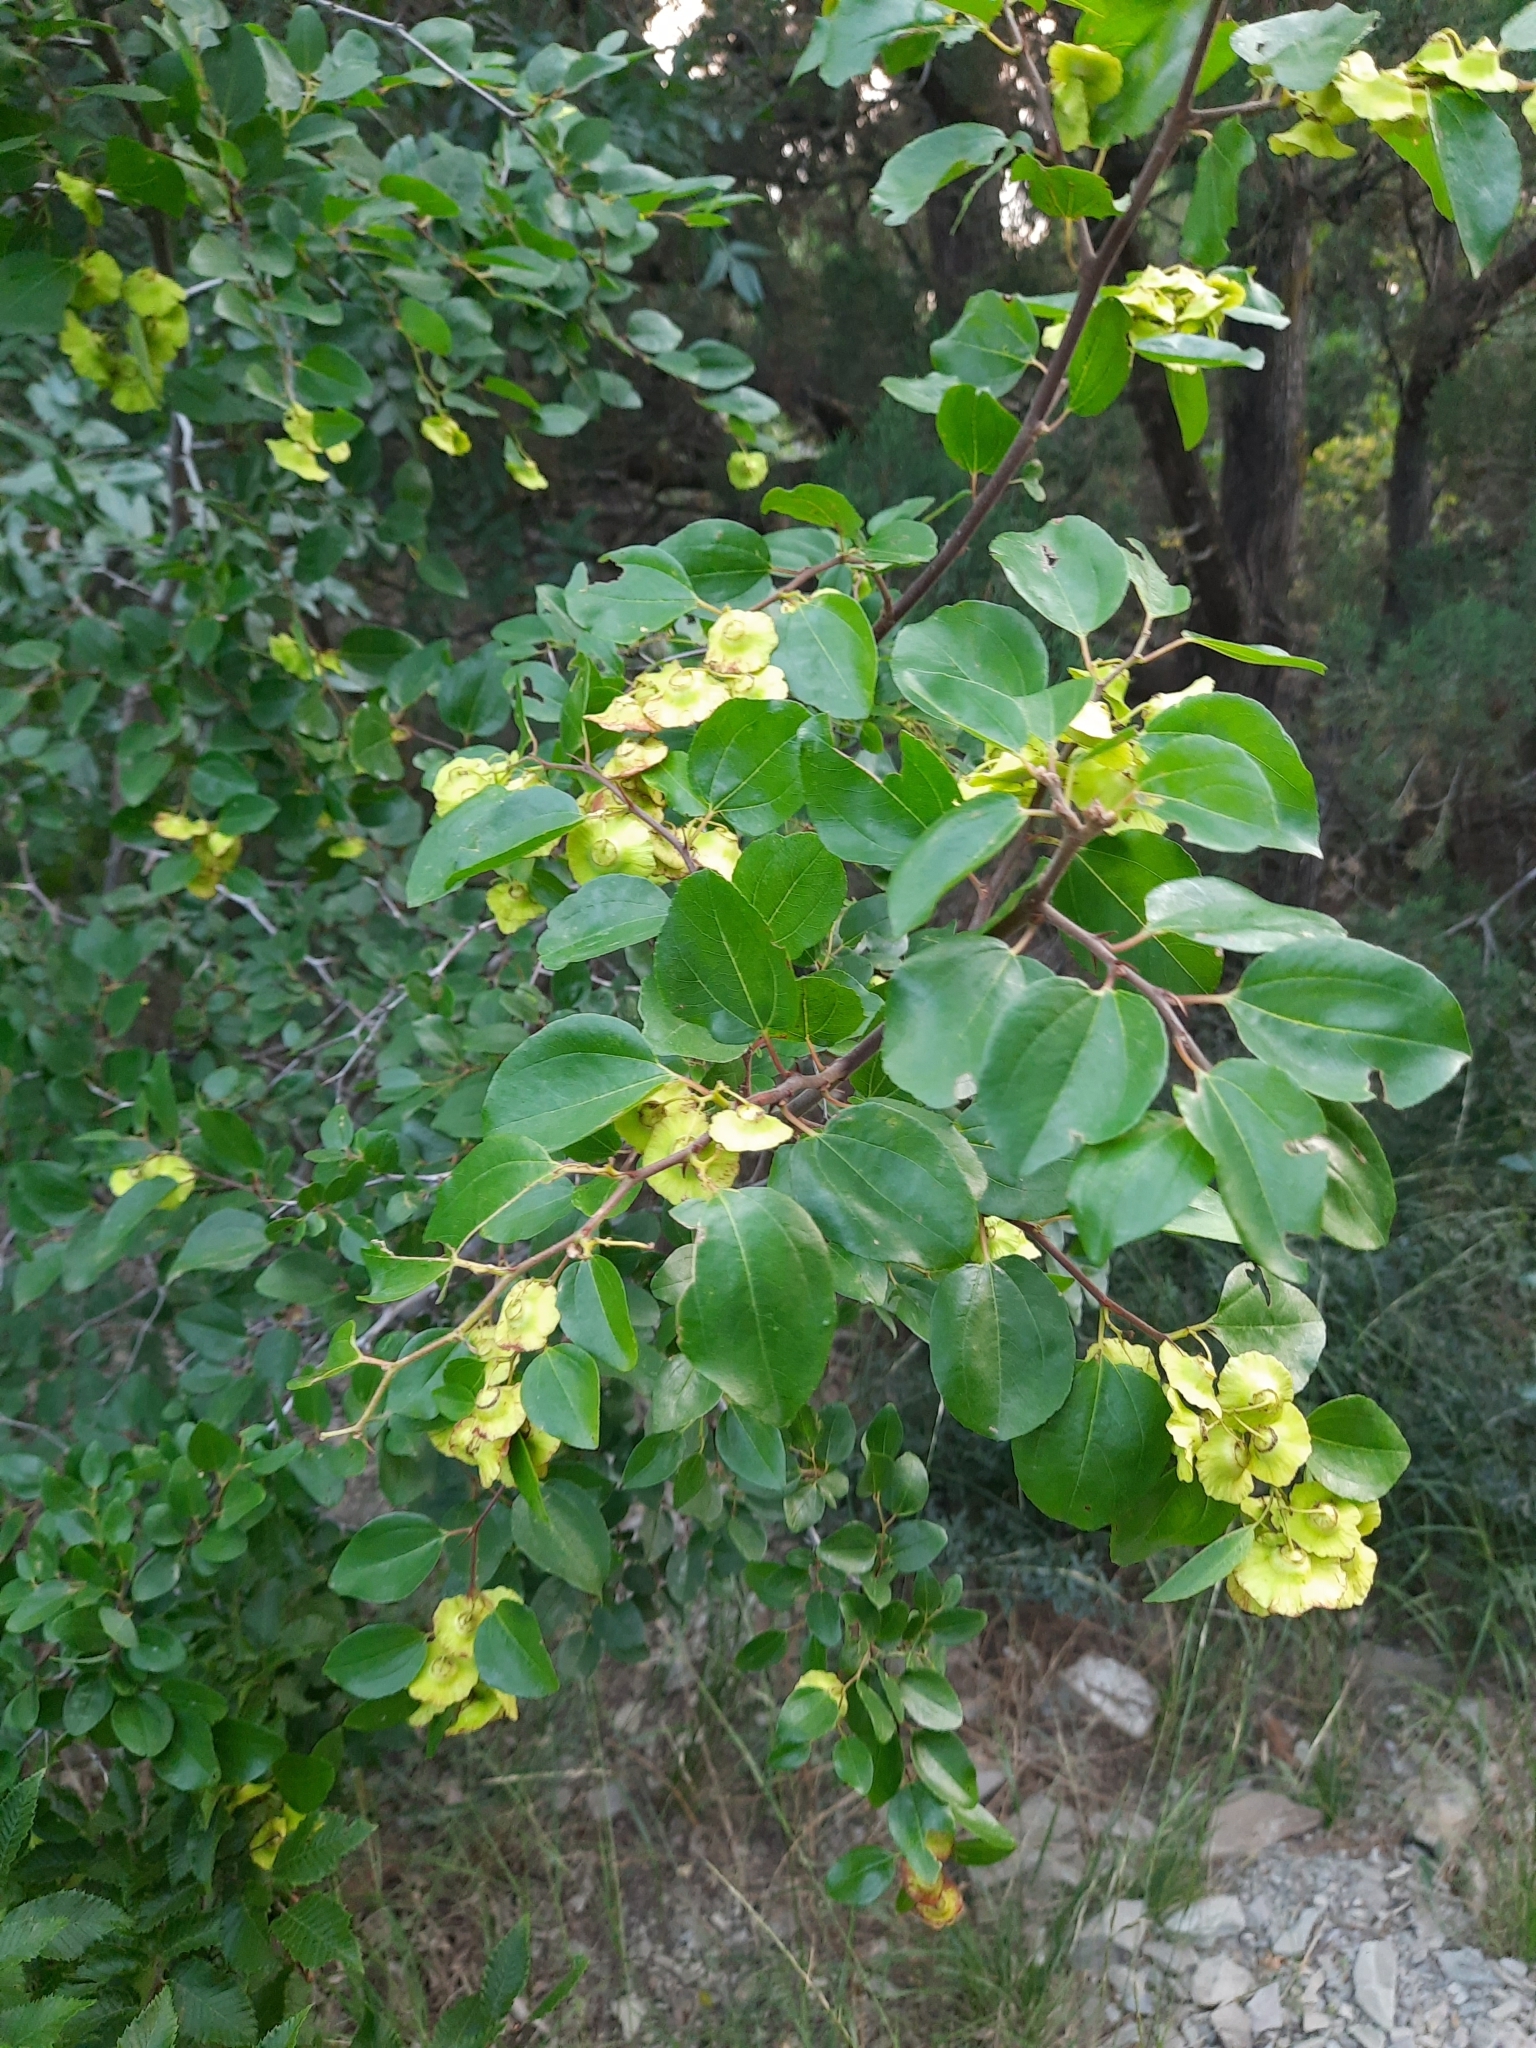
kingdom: Plantae
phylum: Tracheophyta
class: Magnoliopsida
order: Rosales
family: Rhamnaceae
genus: Paliurus
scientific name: Paliurus spina-christi
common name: Jeruselem thorn
